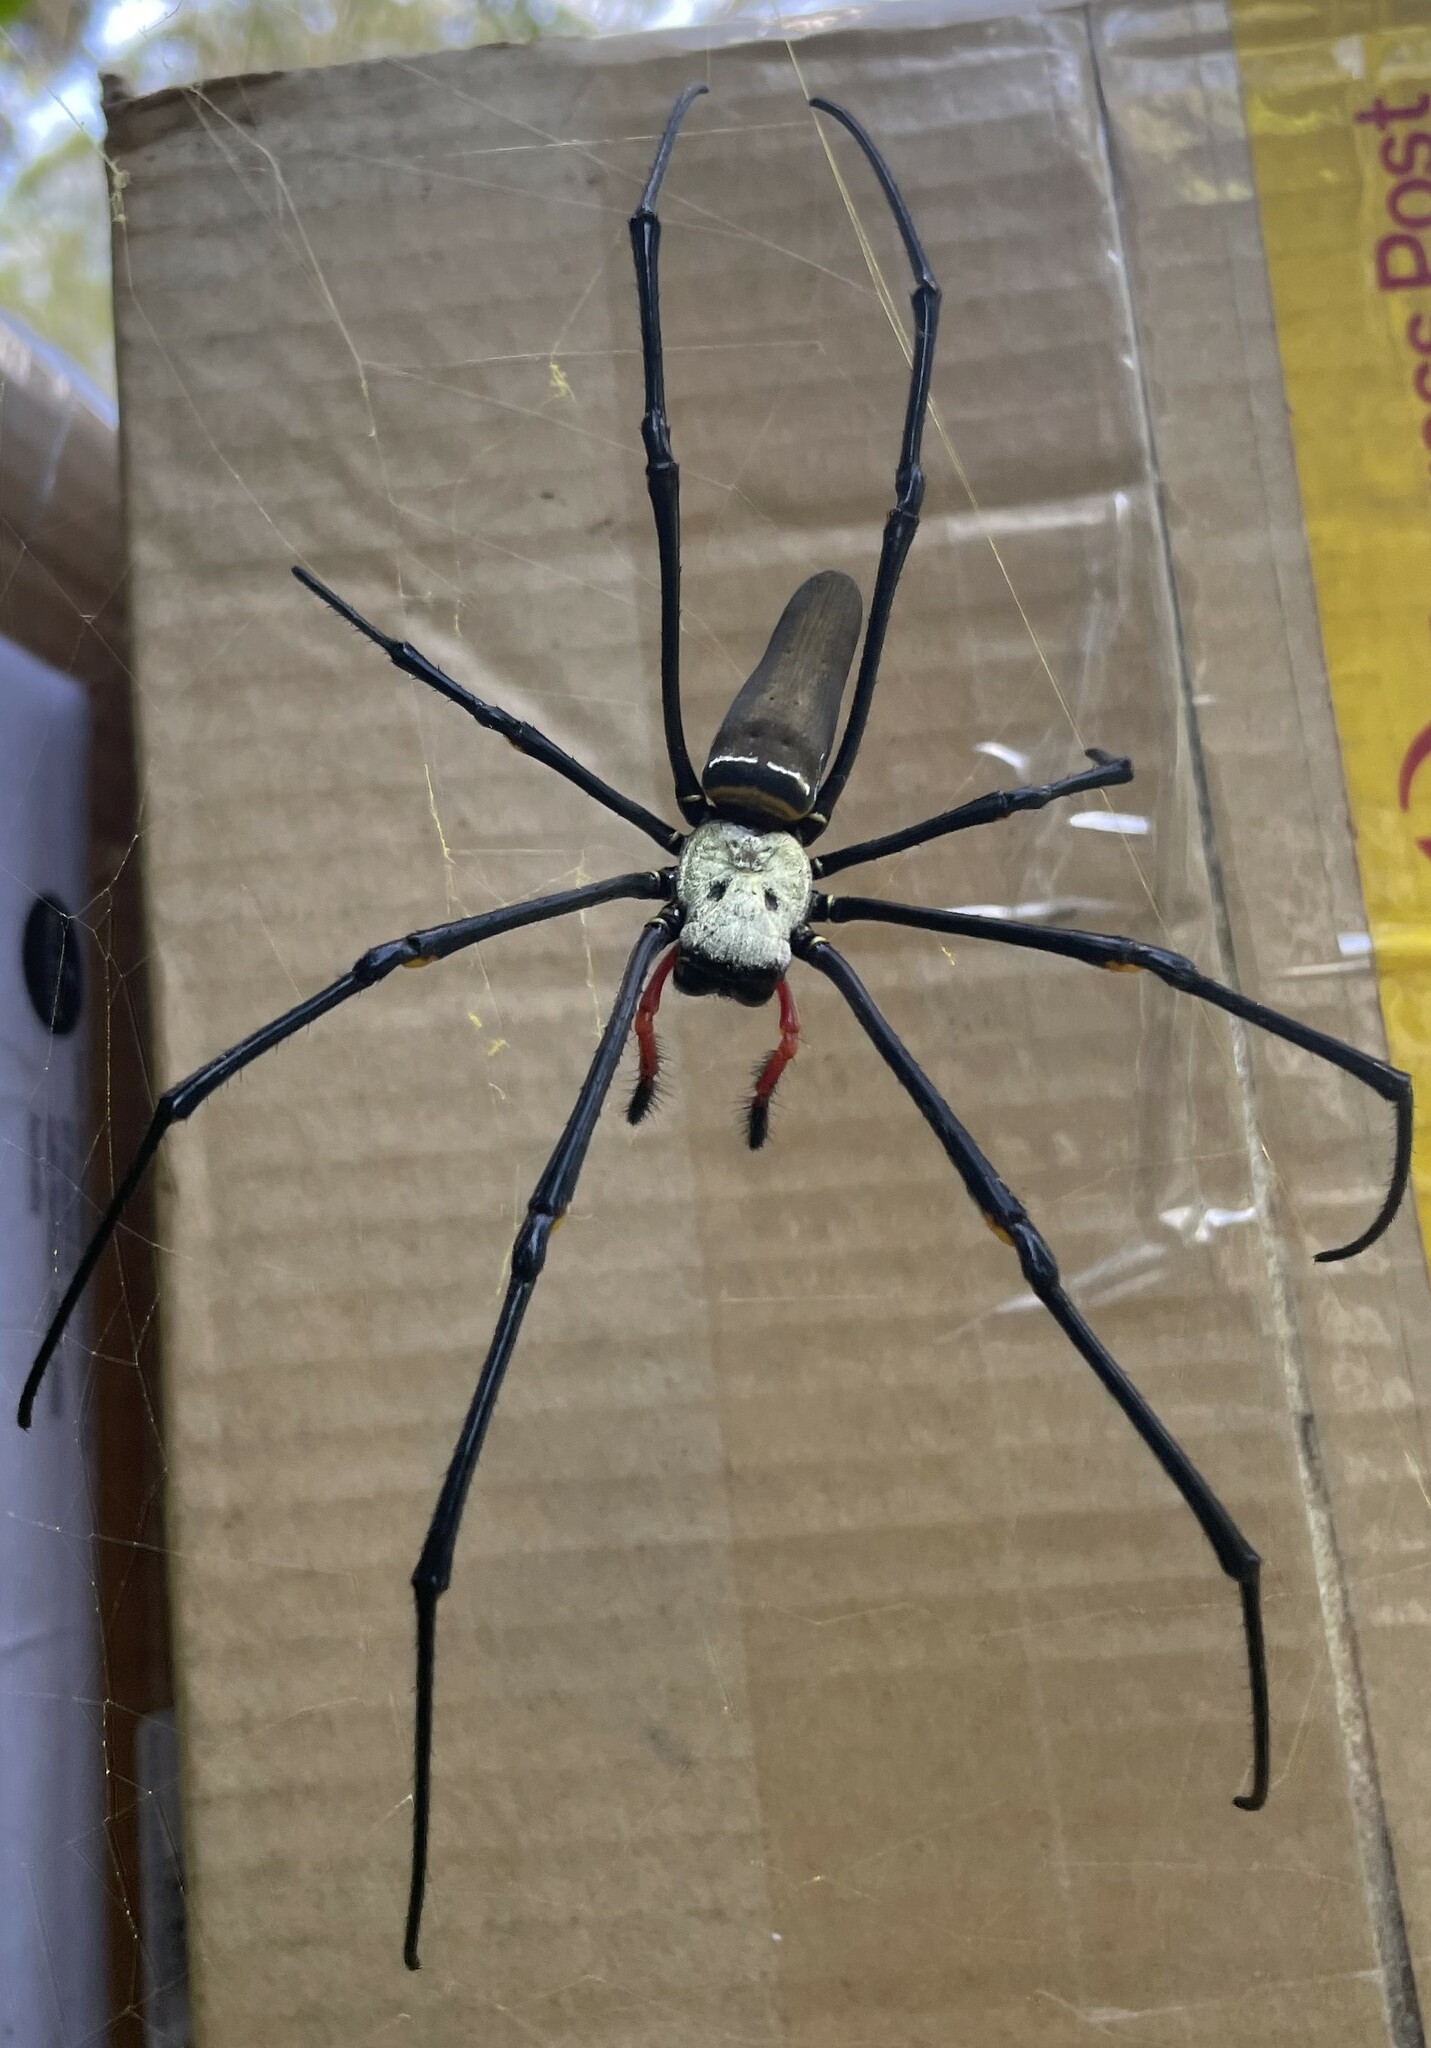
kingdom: Animalia
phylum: Arthropoda
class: Arachnida
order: Araneae
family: Araneidae
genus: Nephila
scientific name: Nephila pilipes
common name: Giant golden orb weaver
